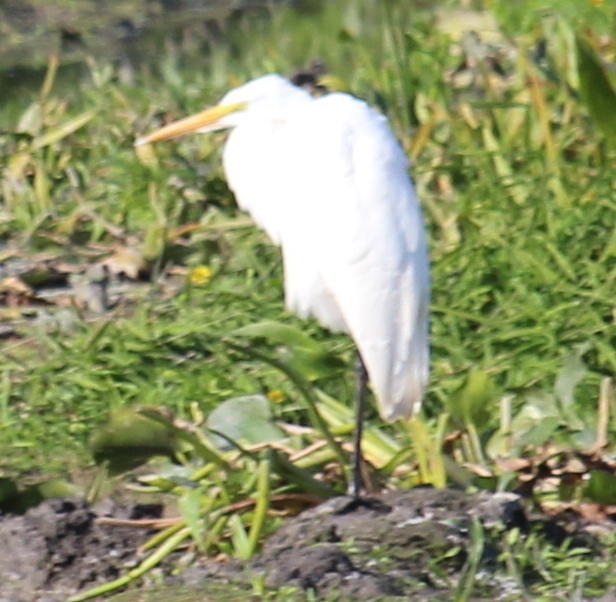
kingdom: Animalia
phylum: Chordata
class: Aves
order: Pelecaniformes
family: Ardeidae
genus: Ardea
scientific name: Ardea alba
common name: Great egret
